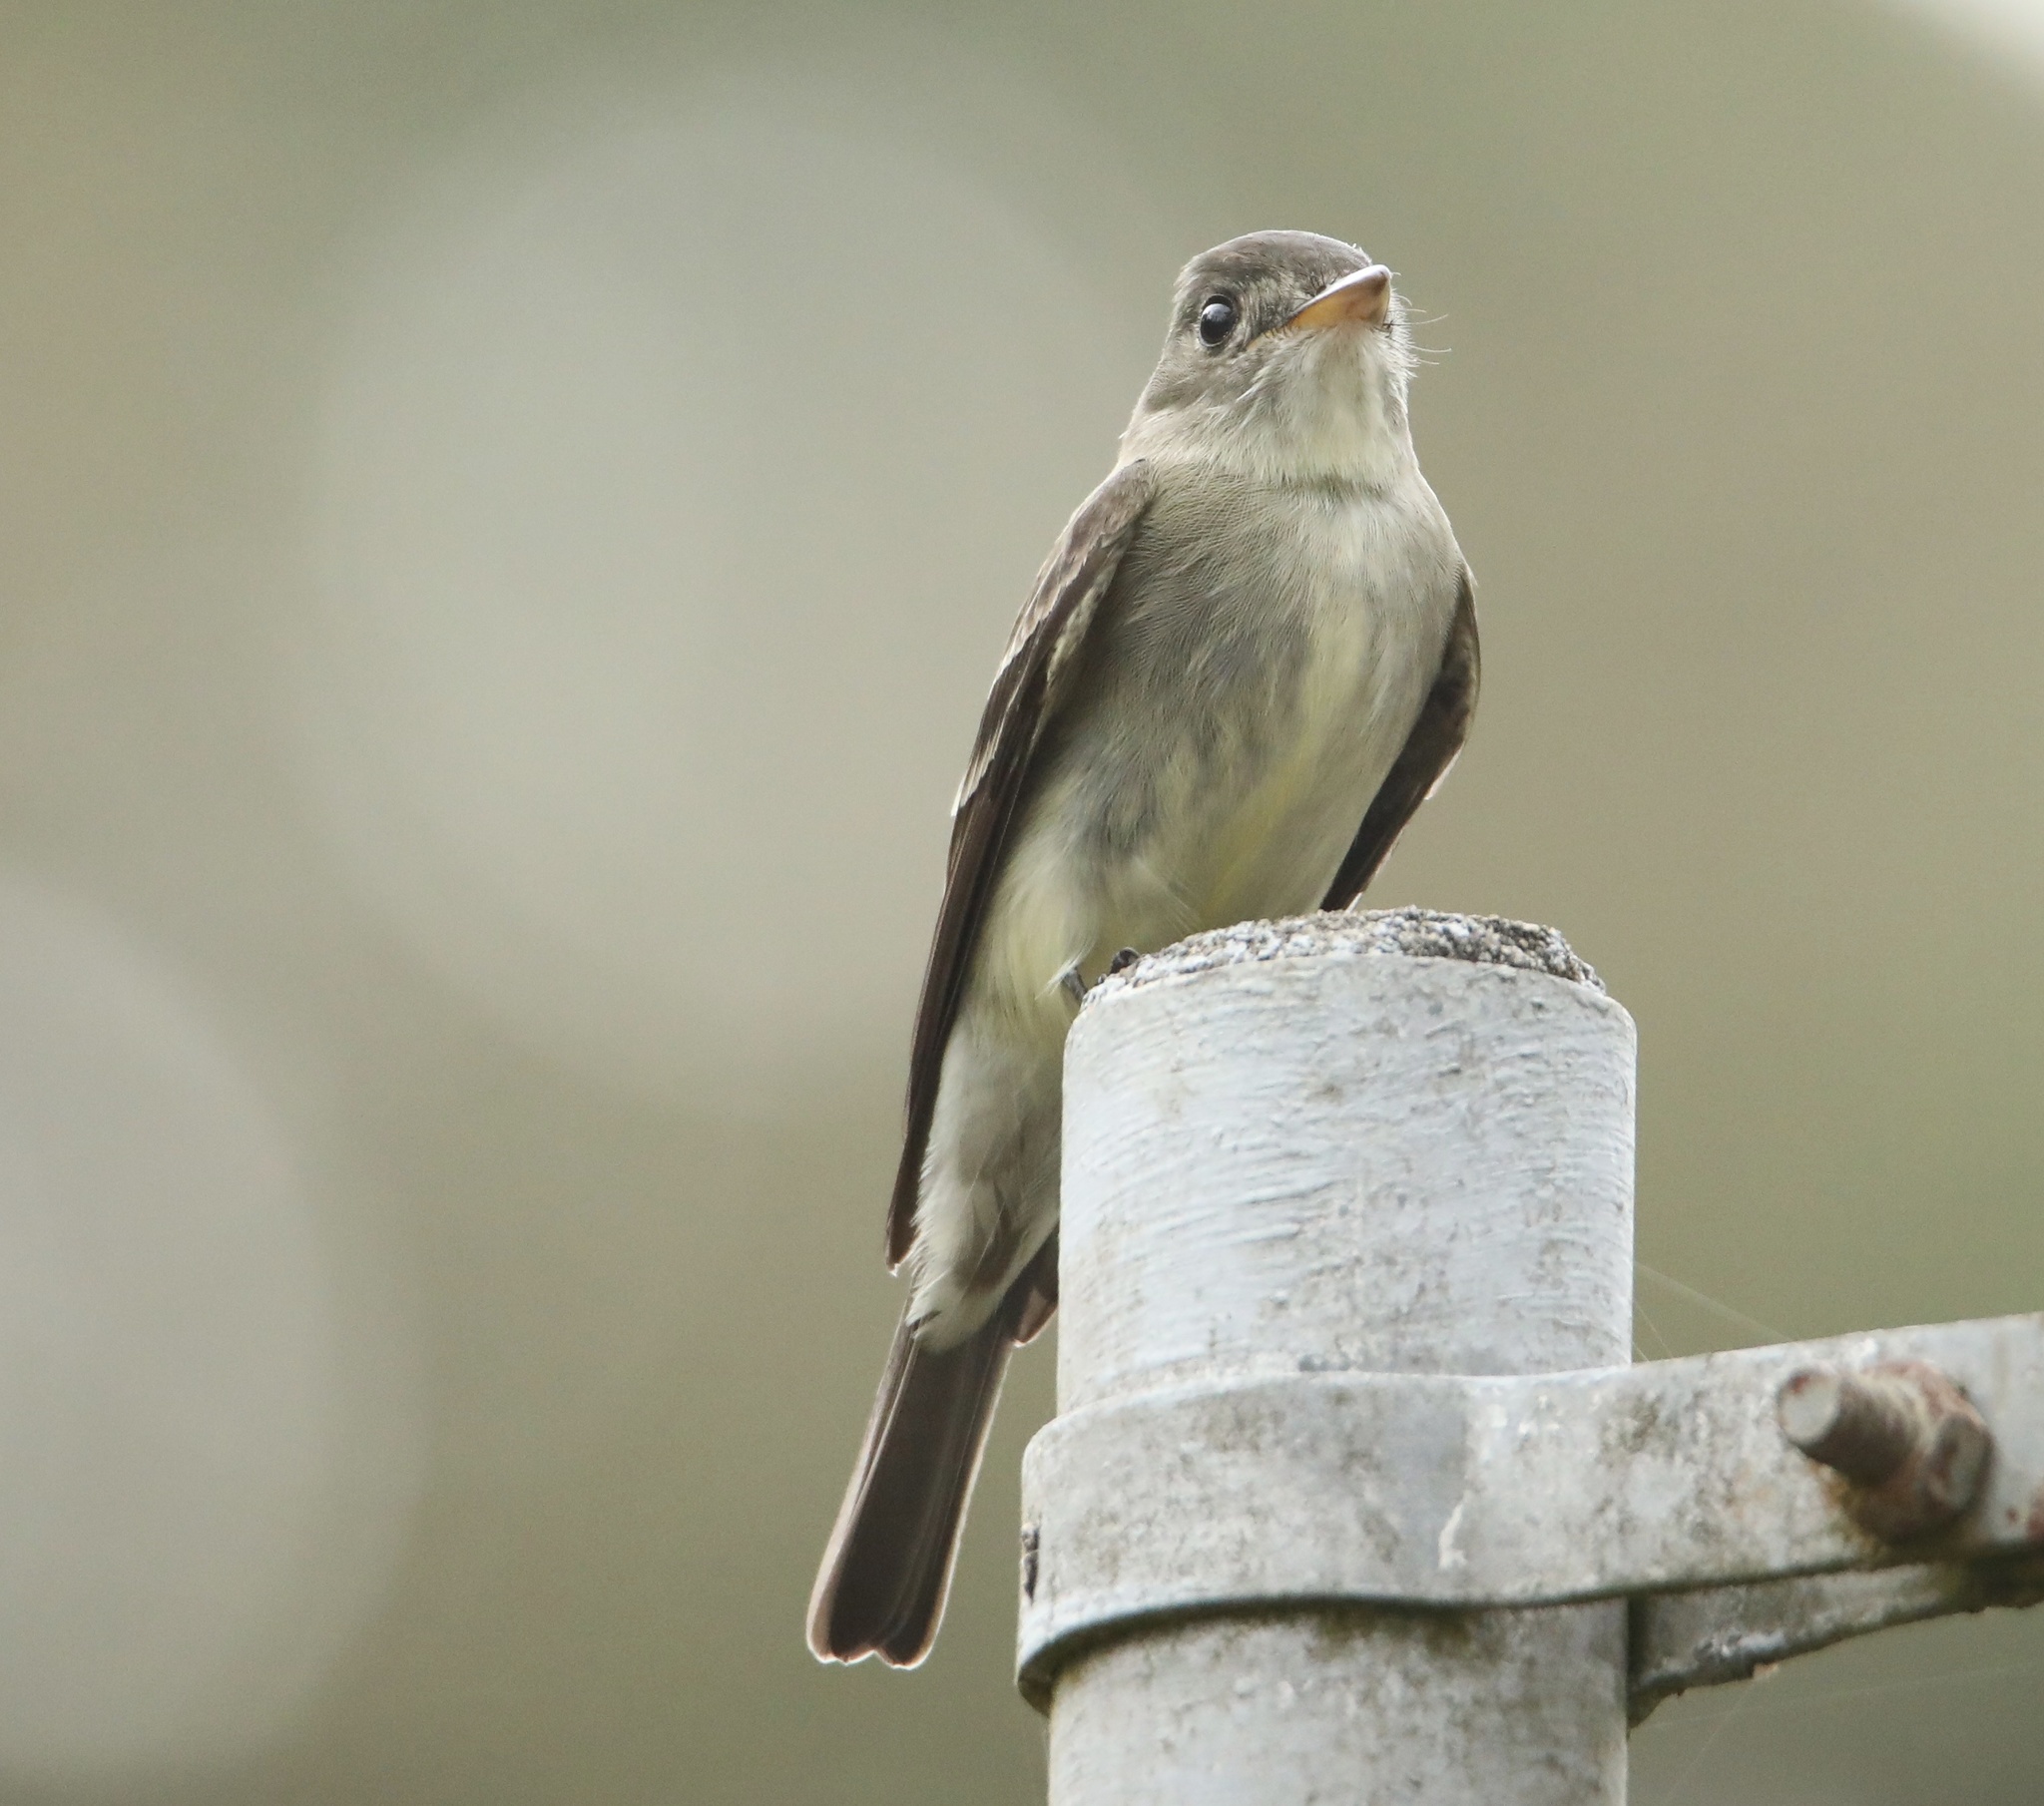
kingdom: Animalia
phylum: Chordata
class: Aves
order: Passeriformes
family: Tyrannidae
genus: Contopus
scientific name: Contopus virens
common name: Eastern wood-pewee
